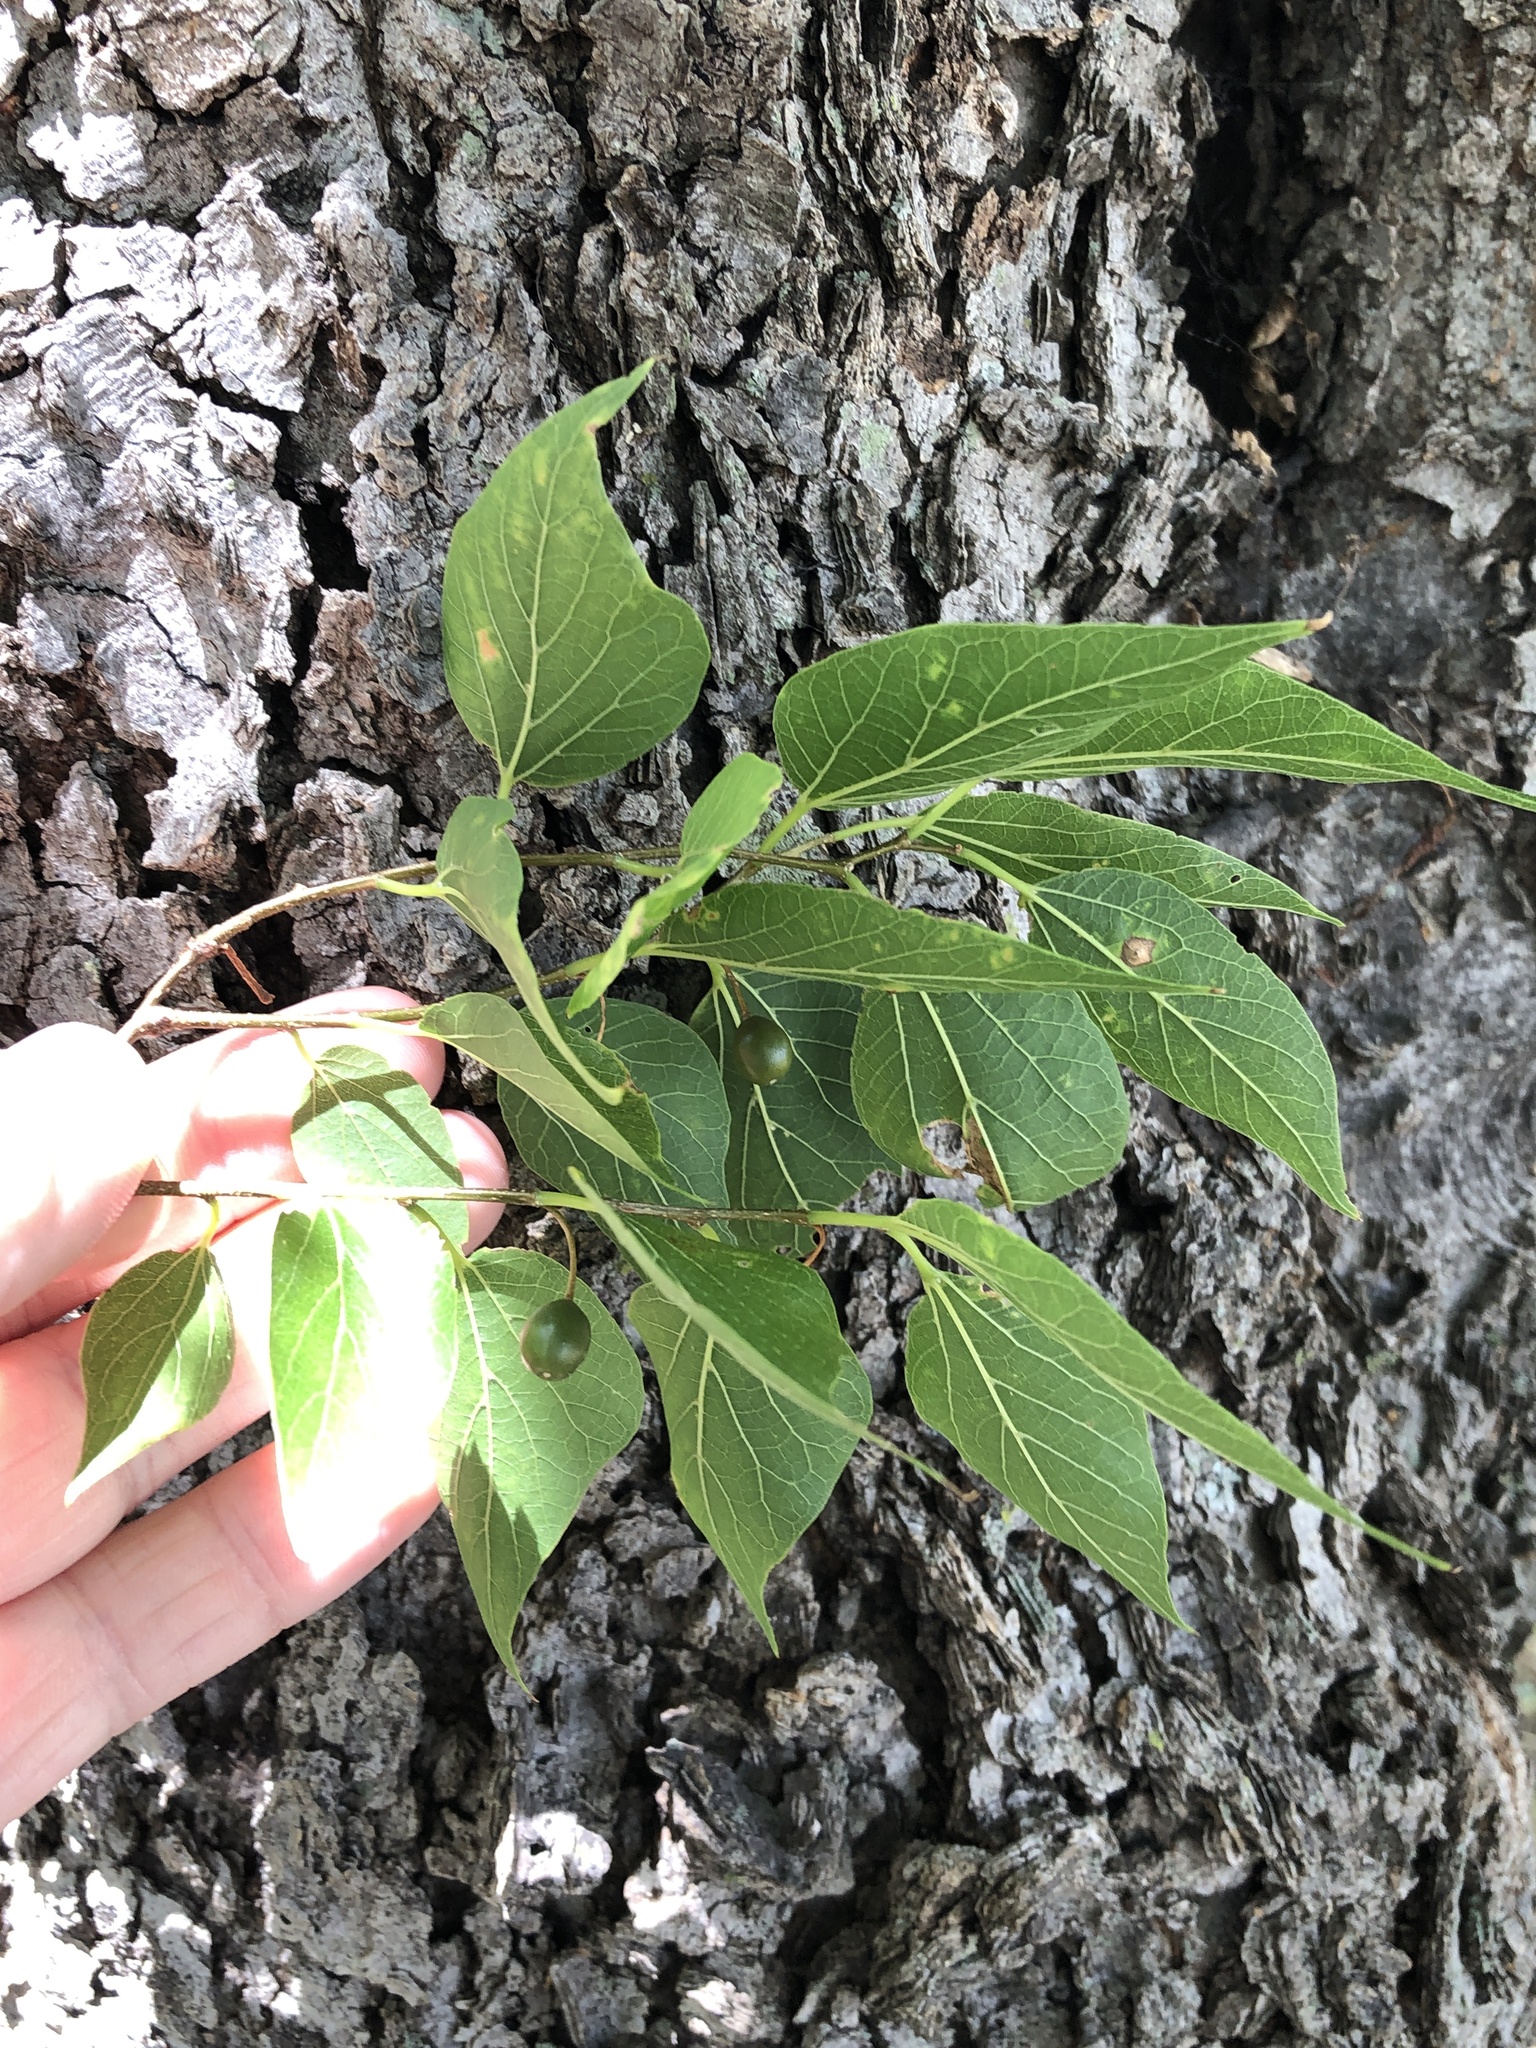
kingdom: Plantae
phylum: Tracheophyta
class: Magnoliopsida
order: Rosales
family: Cannabaceae
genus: Celtis
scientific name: Celtis laevigata
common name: Sugarberry
